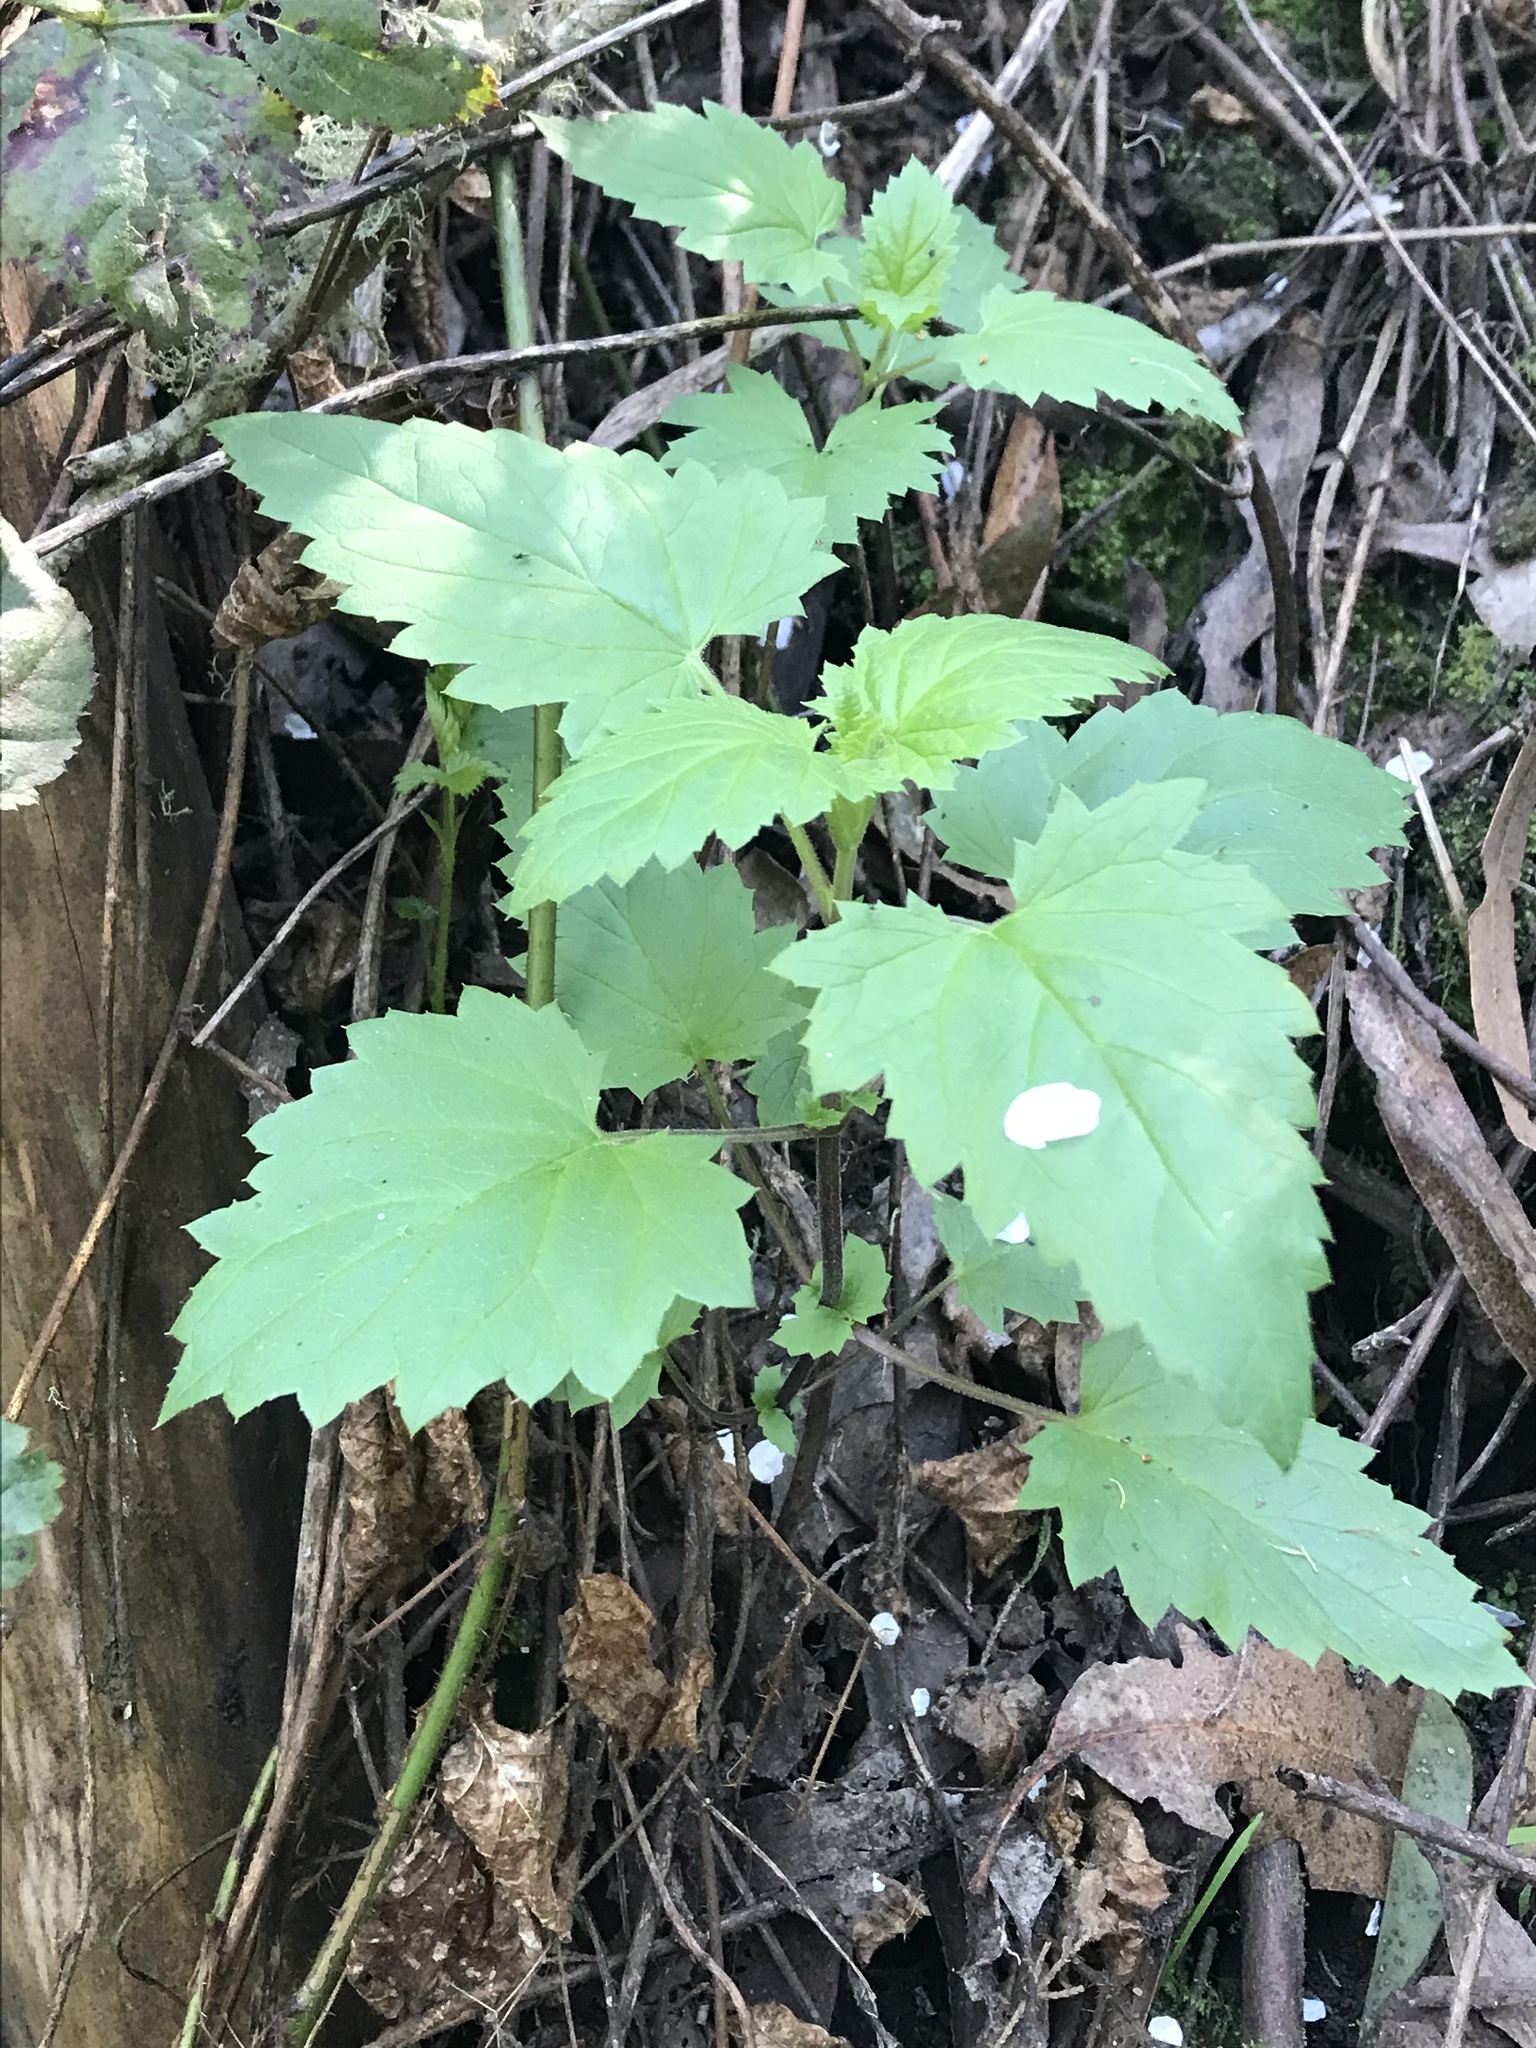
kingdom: Plantae
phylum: Tracheophyta
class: Magnoliopsida
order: Lamiales
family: Scrophulariaceae
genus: Scrophularia
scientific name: Scrophularia californica
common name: California figwort
